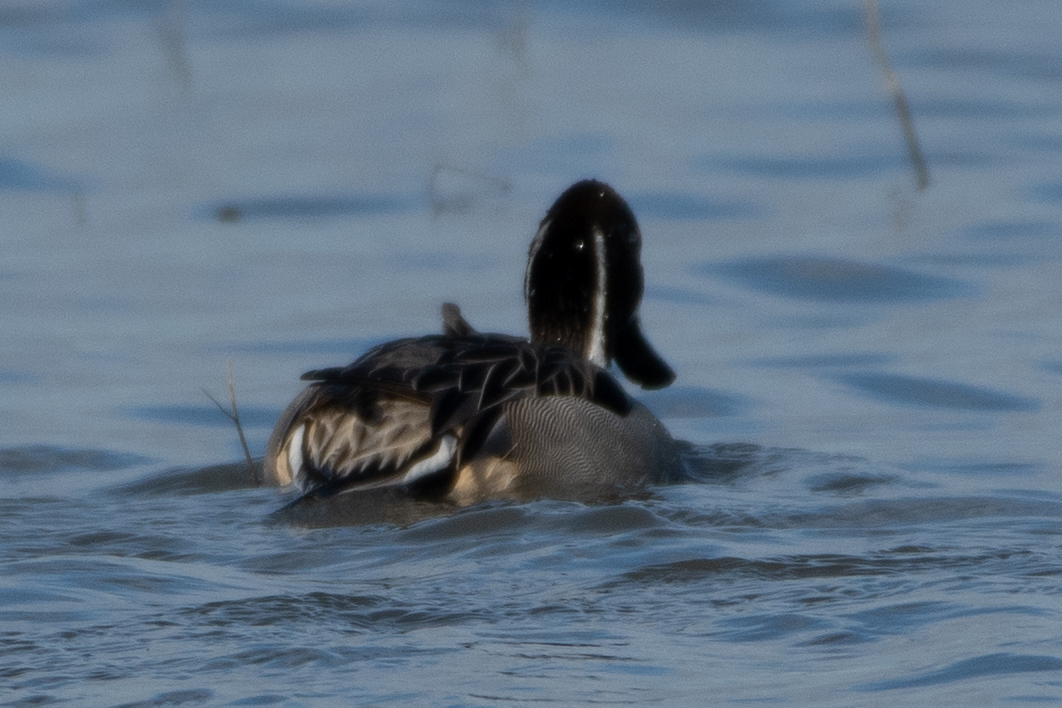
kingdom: Animalia
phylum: Chordata
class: Aves
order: Anseriformes
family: Anatidae
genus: Anas
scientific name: Anas acuta
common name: Northern pintail
